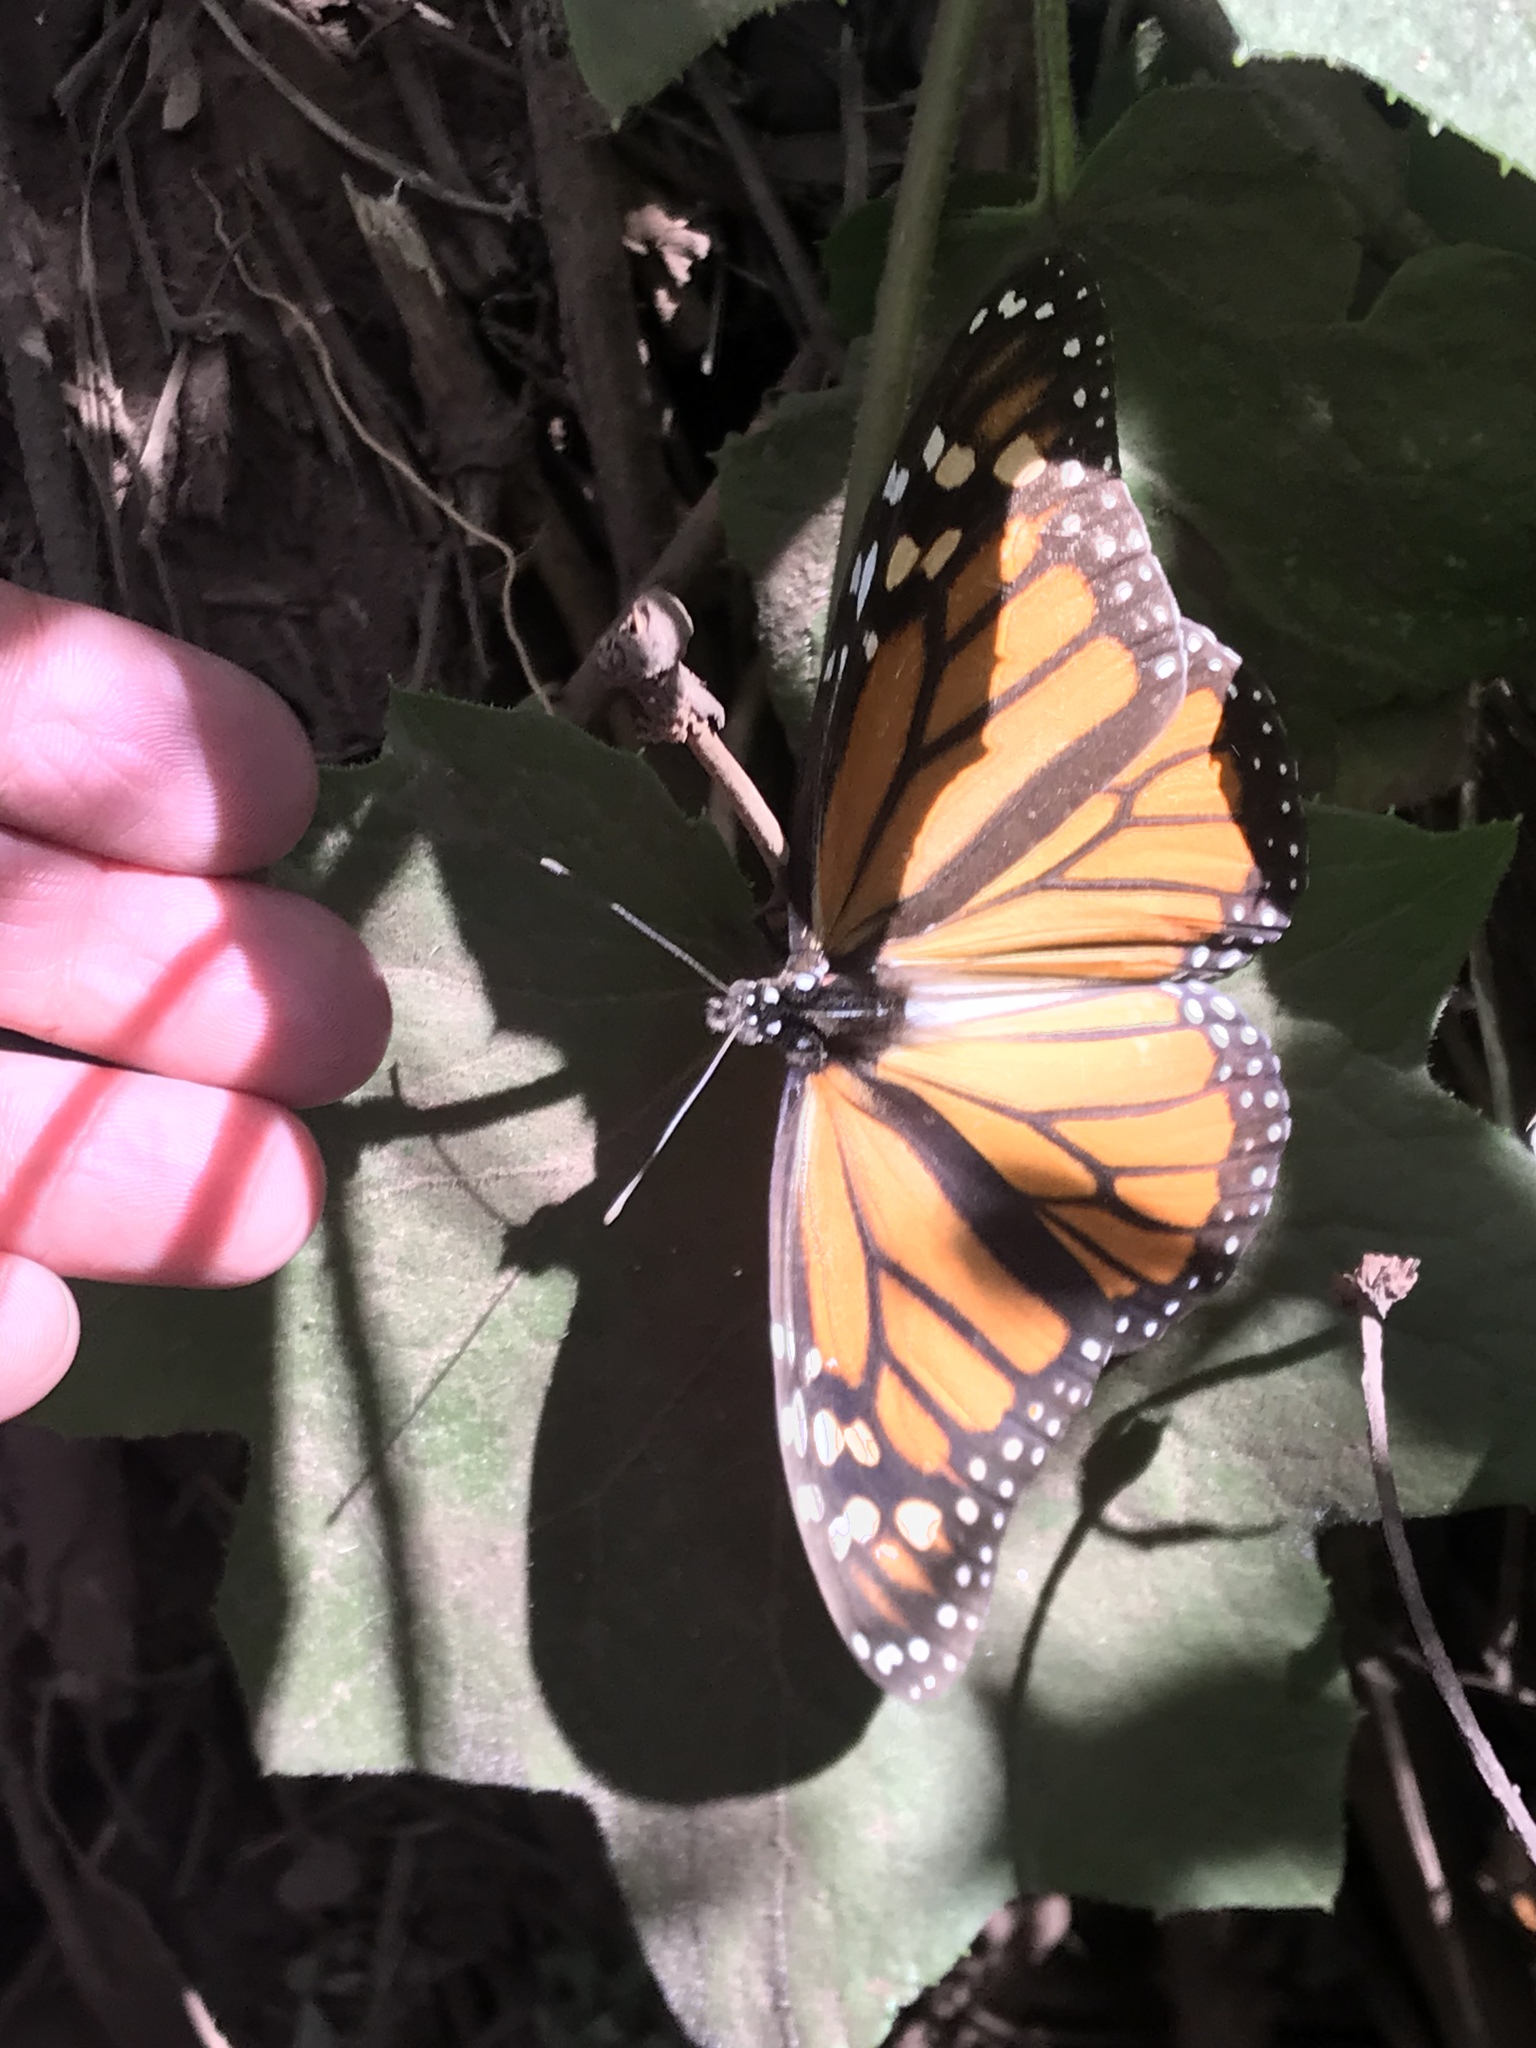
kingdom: Animalia
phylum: Arthropoda
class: Insecta
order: Lepidoptera
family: Nymphalidae
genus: Danaus
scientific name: Danaus plexippus
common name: Monarch
